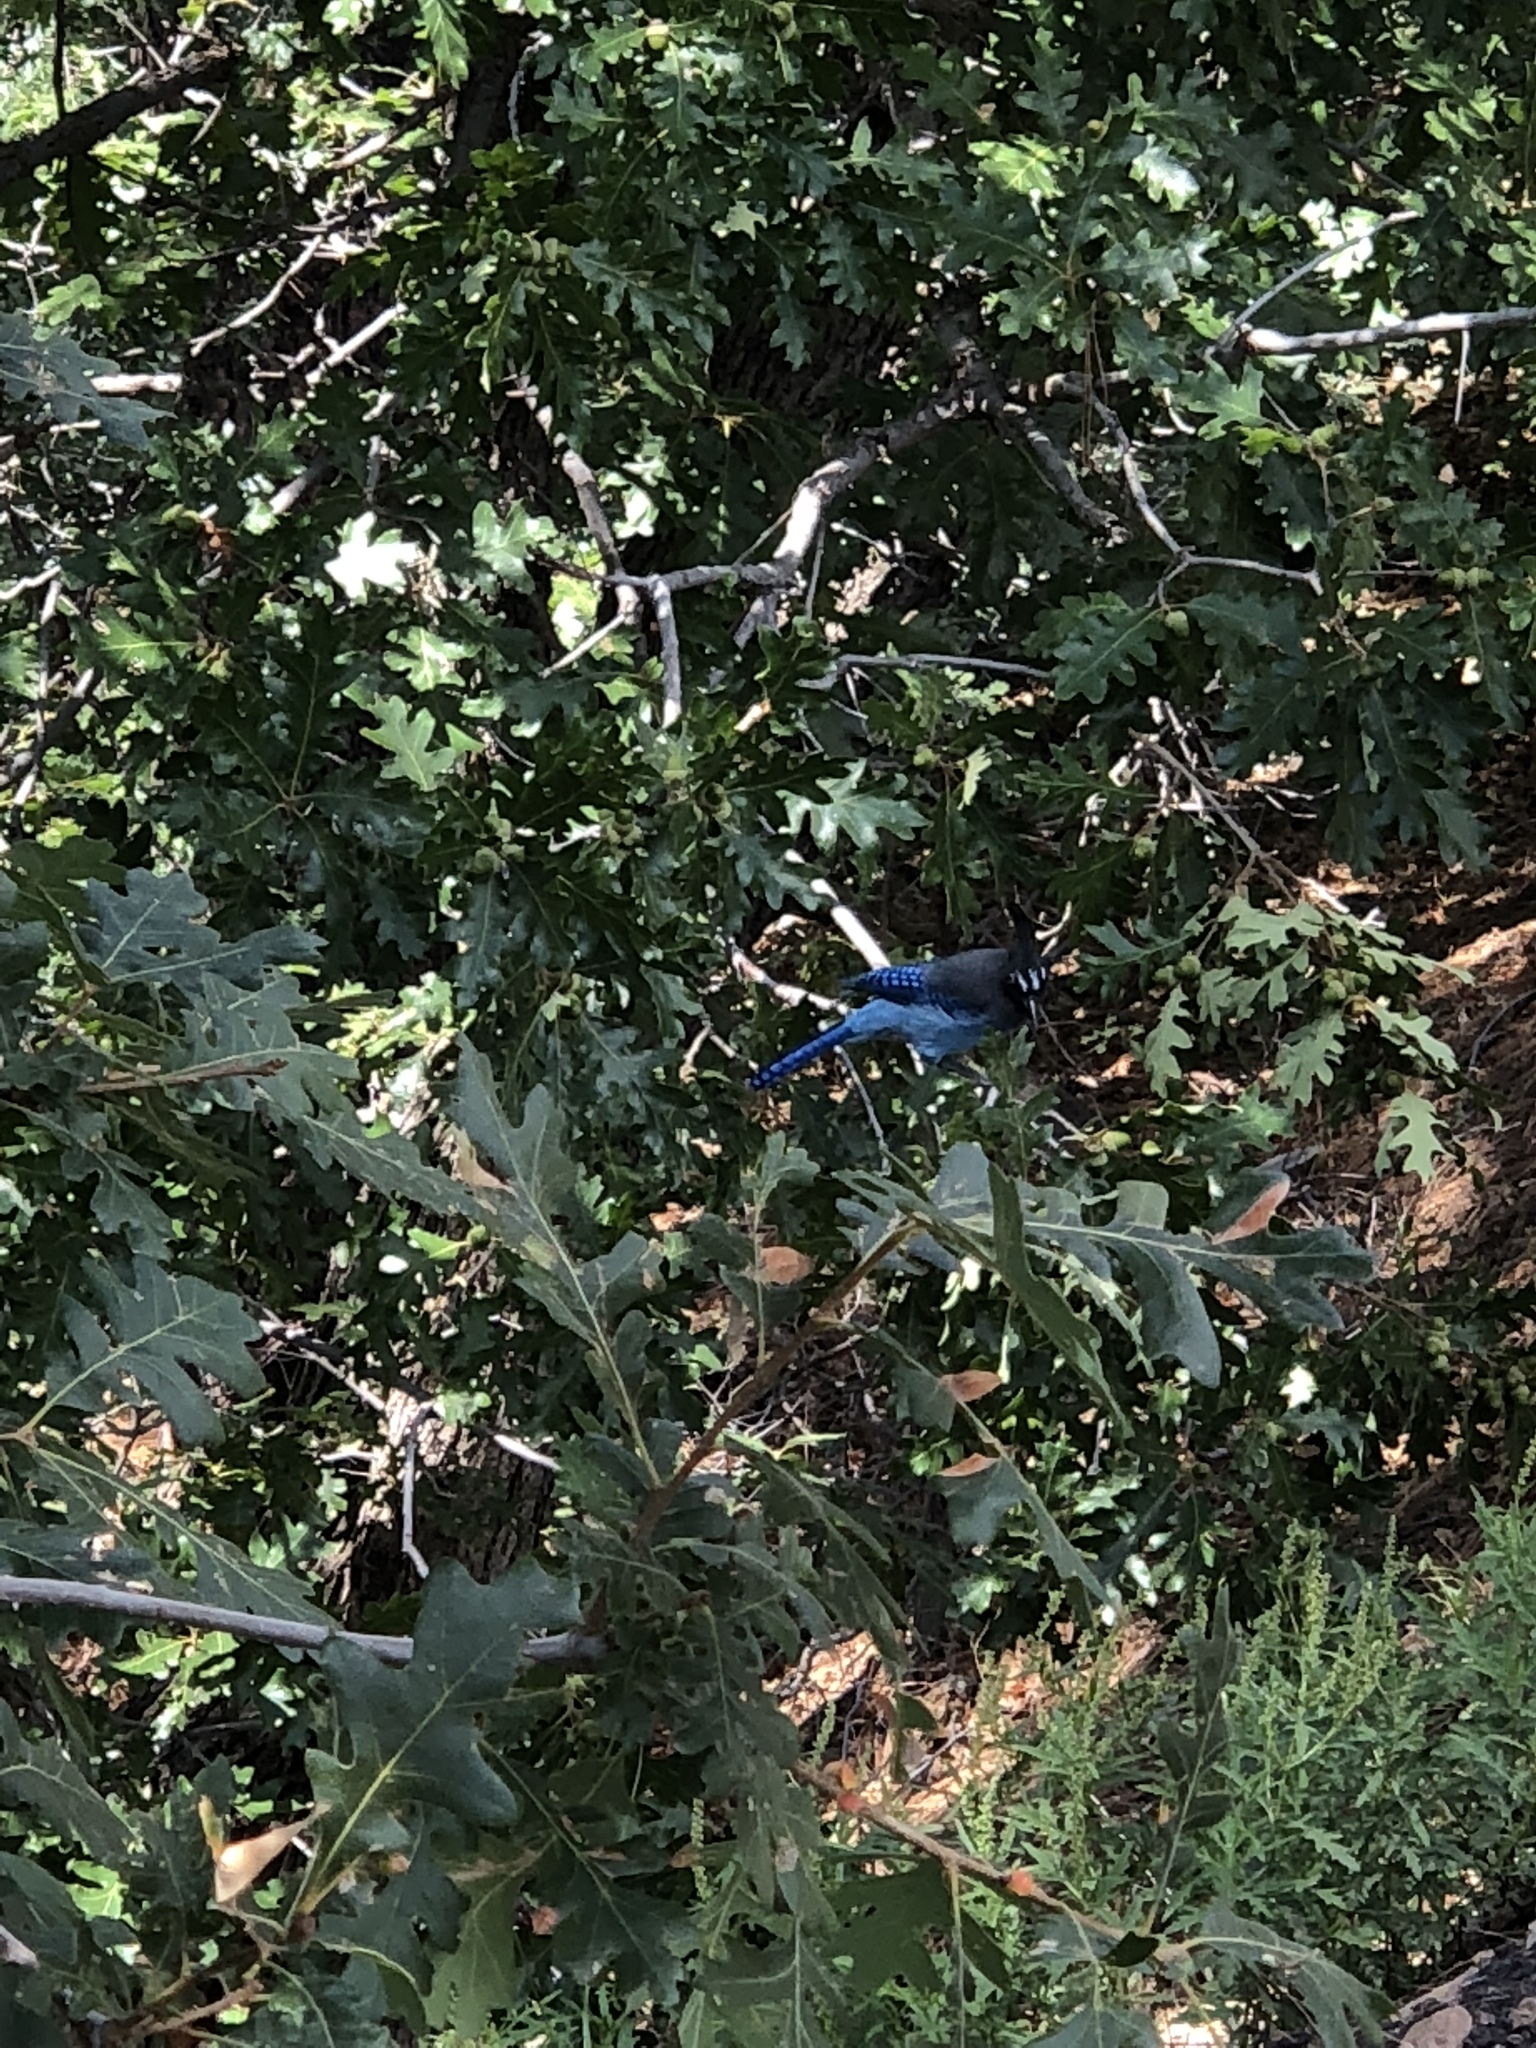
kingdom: Animalia
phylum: Chordata
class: Aves
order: Passeriformes
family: Corvidae
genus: Cyanocitta
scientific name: Cyanocitta stelleri
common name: Steller's jay
